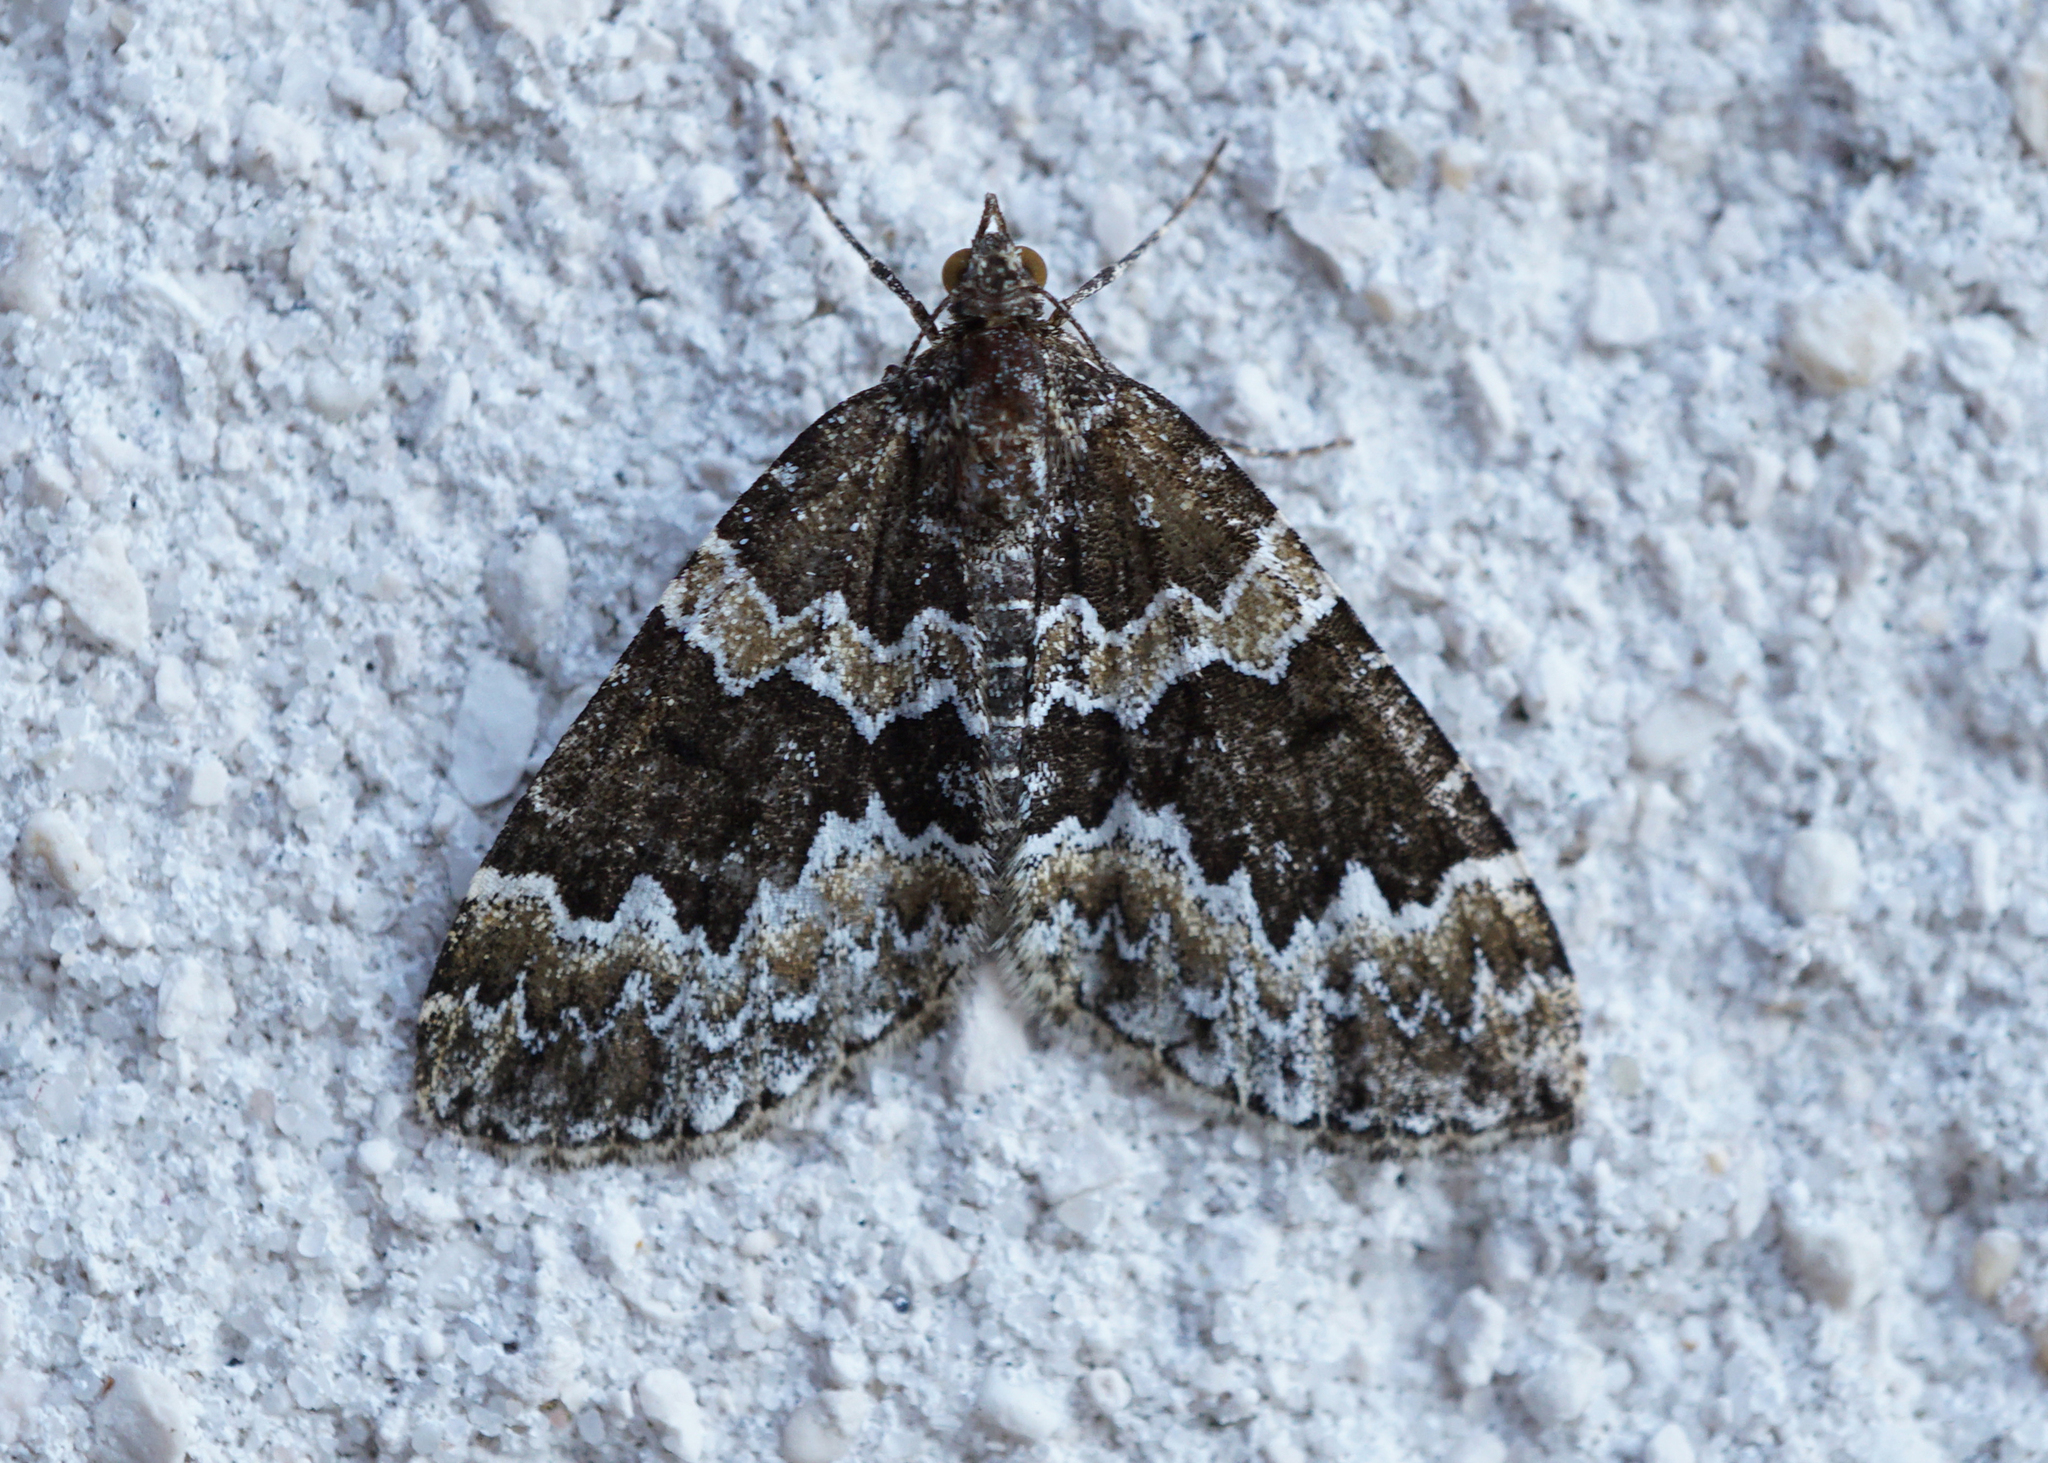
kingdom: Animalia
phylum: Arthropoda
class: Insecta
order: Lepidoptera
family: Geometridae
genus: Electrophaes
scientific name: Electrophaes corylata
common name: Broken-barred carpet
